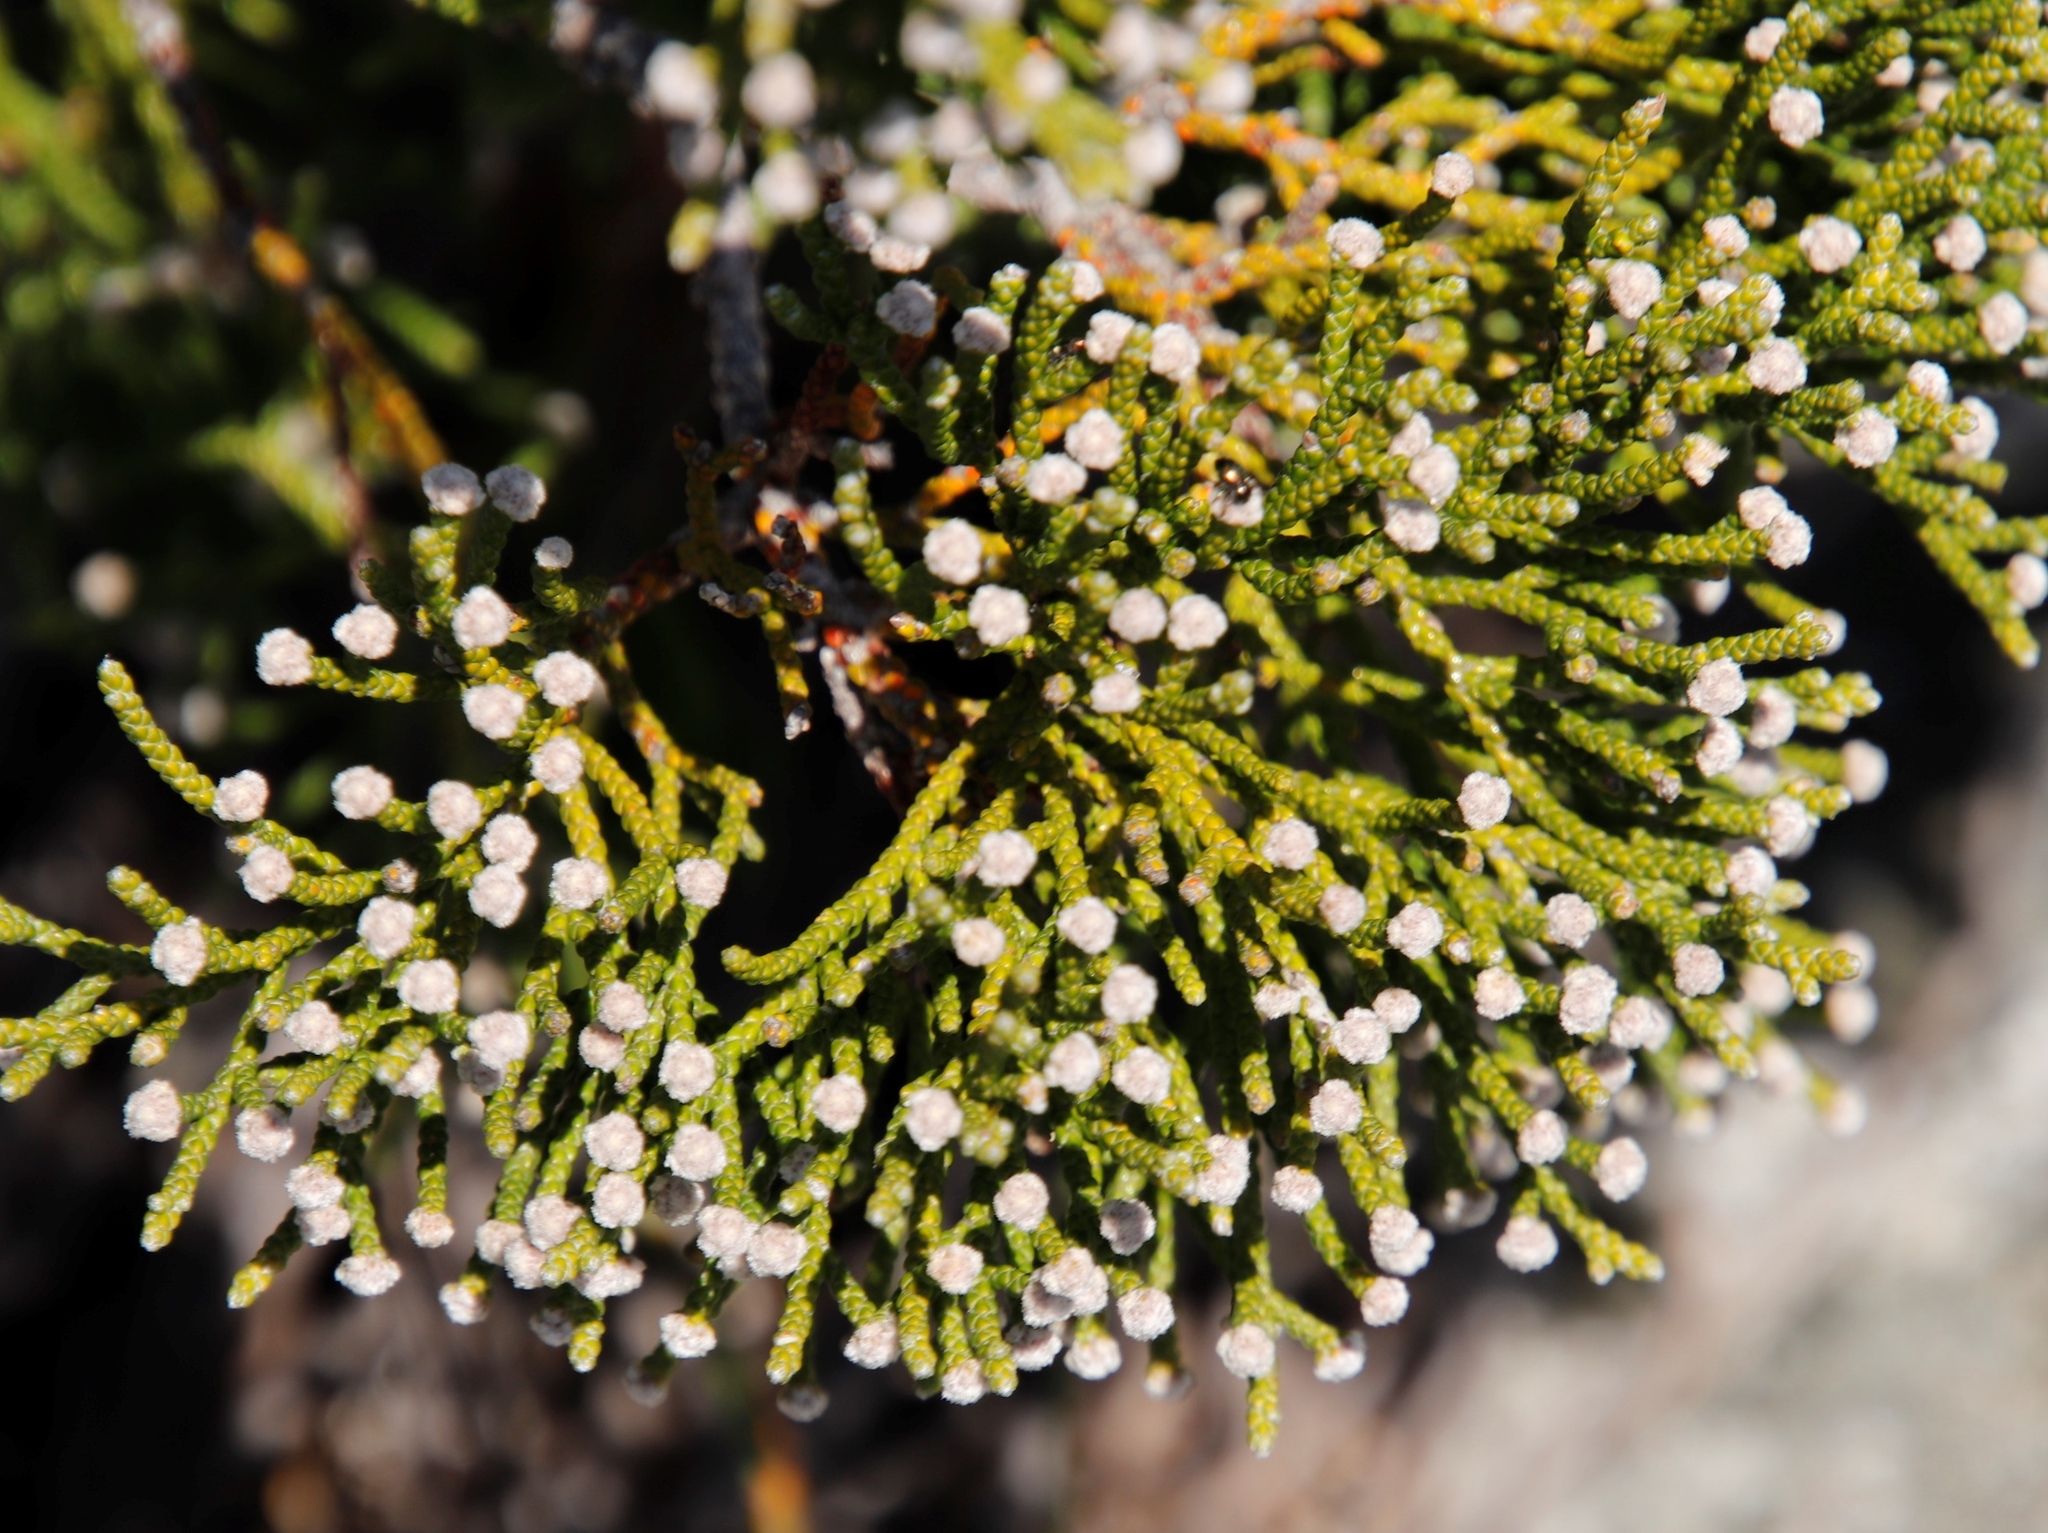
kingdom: Plantae
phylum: Tracheophyta
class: Magnoliopsida
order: Bruniales
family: Bruniaceae
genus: Brunia
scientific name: Brunia microphylla
